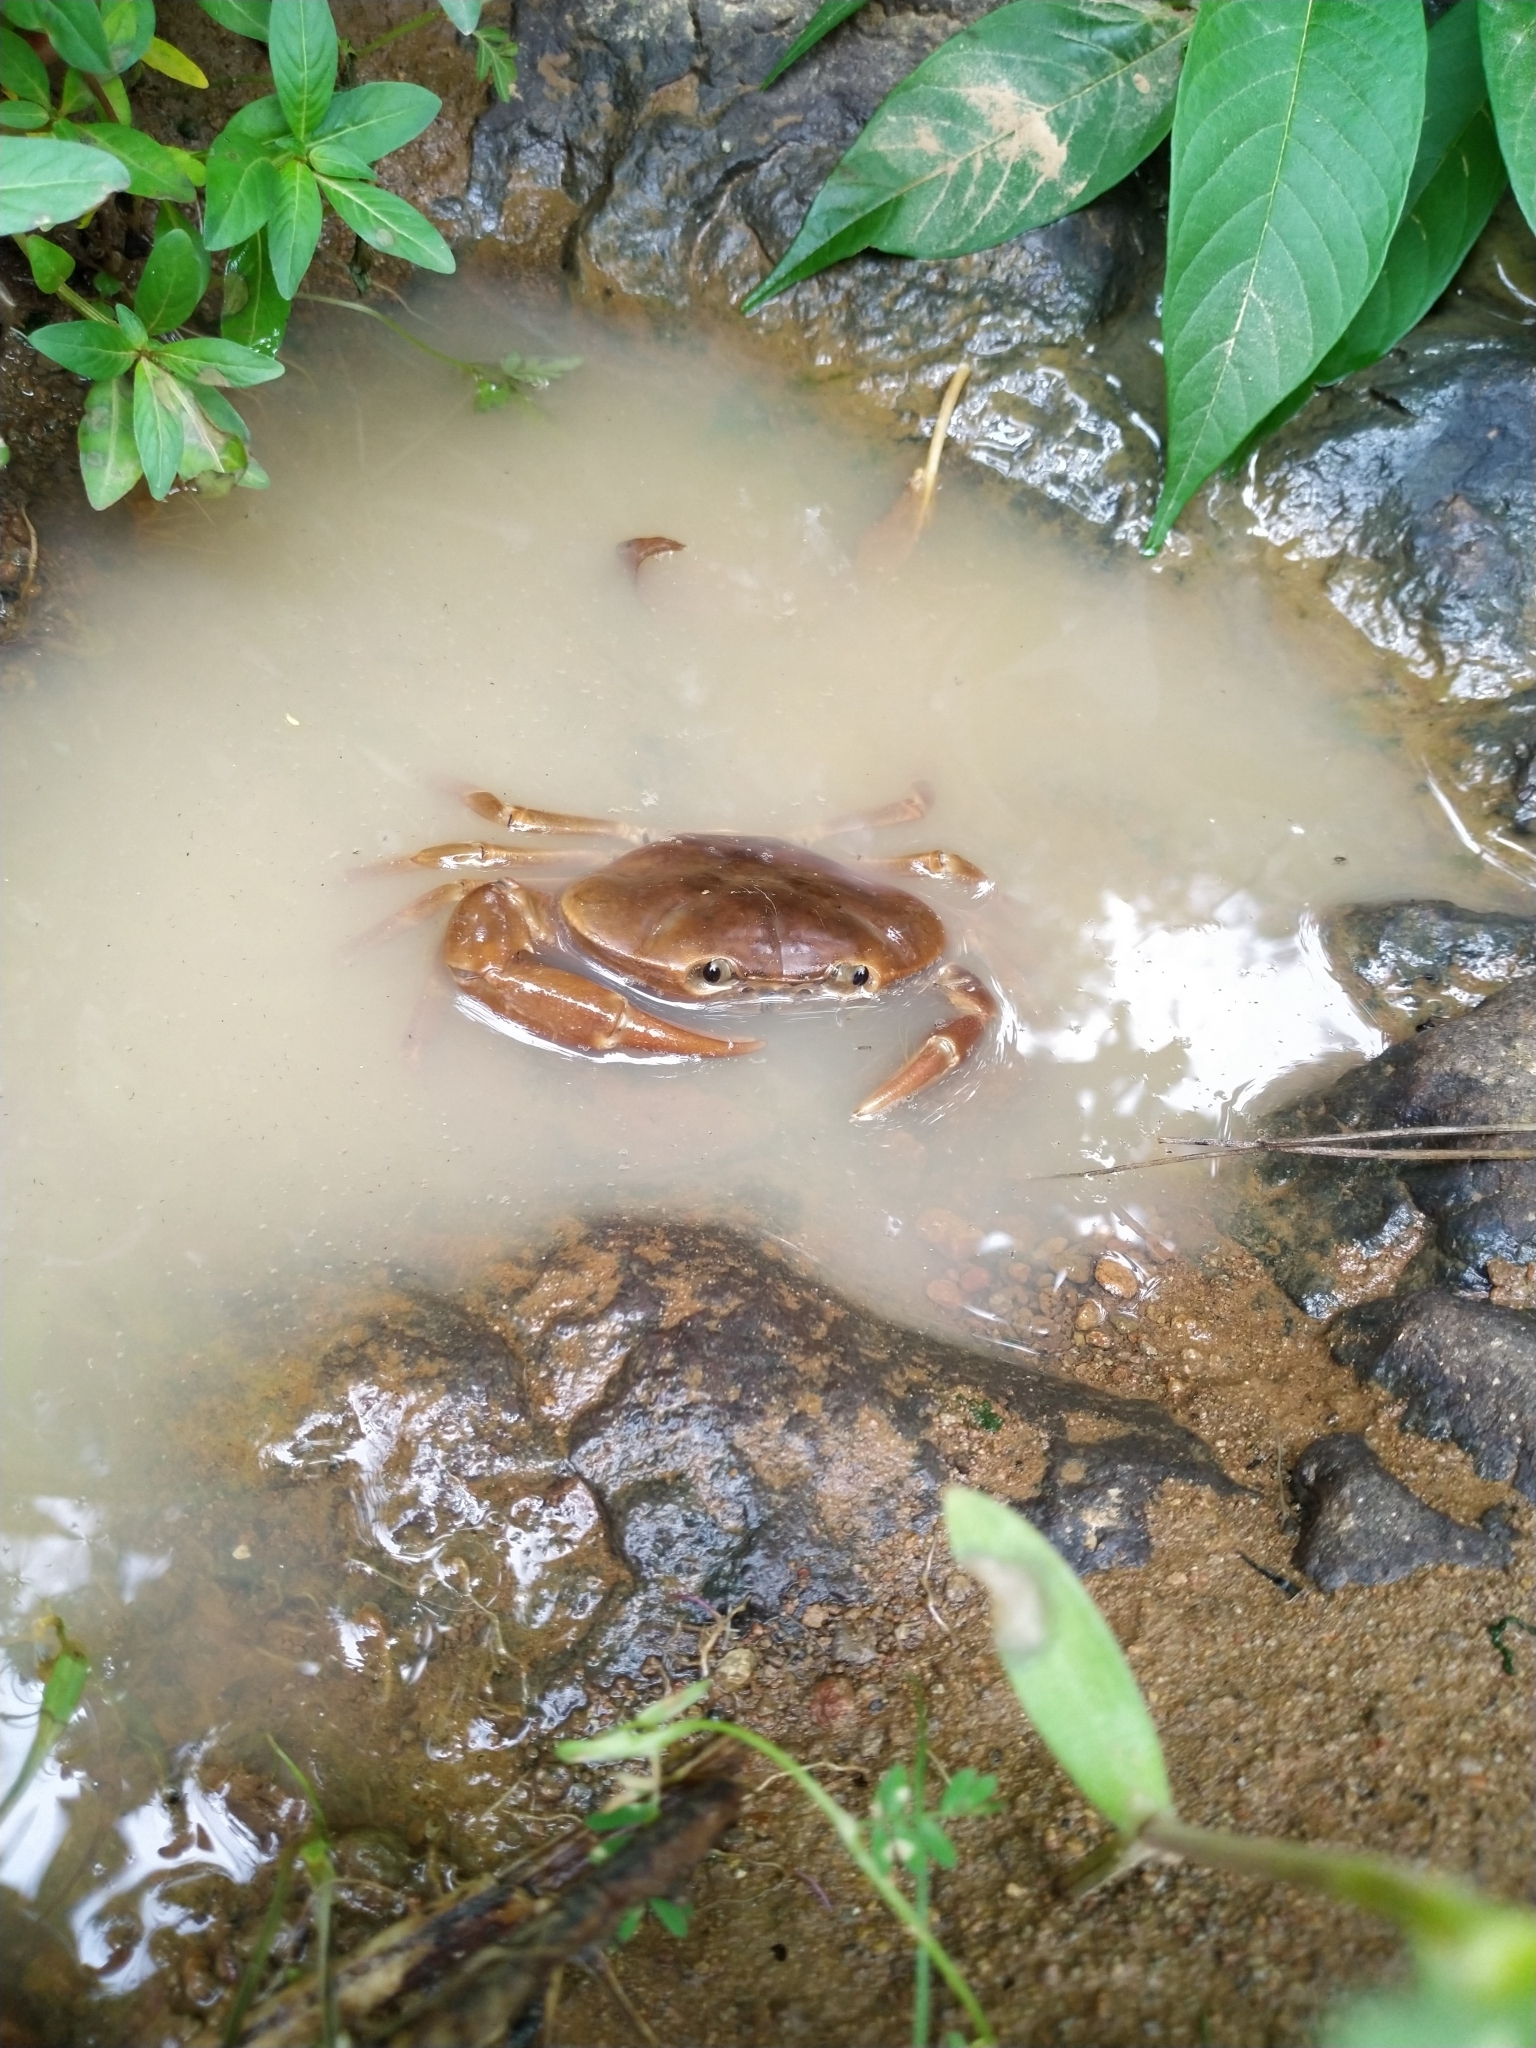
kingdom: Animalia
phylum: Arthropoda
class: Malacostraca
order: Decapoda
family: Pseudothelphusidae
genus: Pseudothelphusa
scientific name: Pseudothelphusa morelosis
